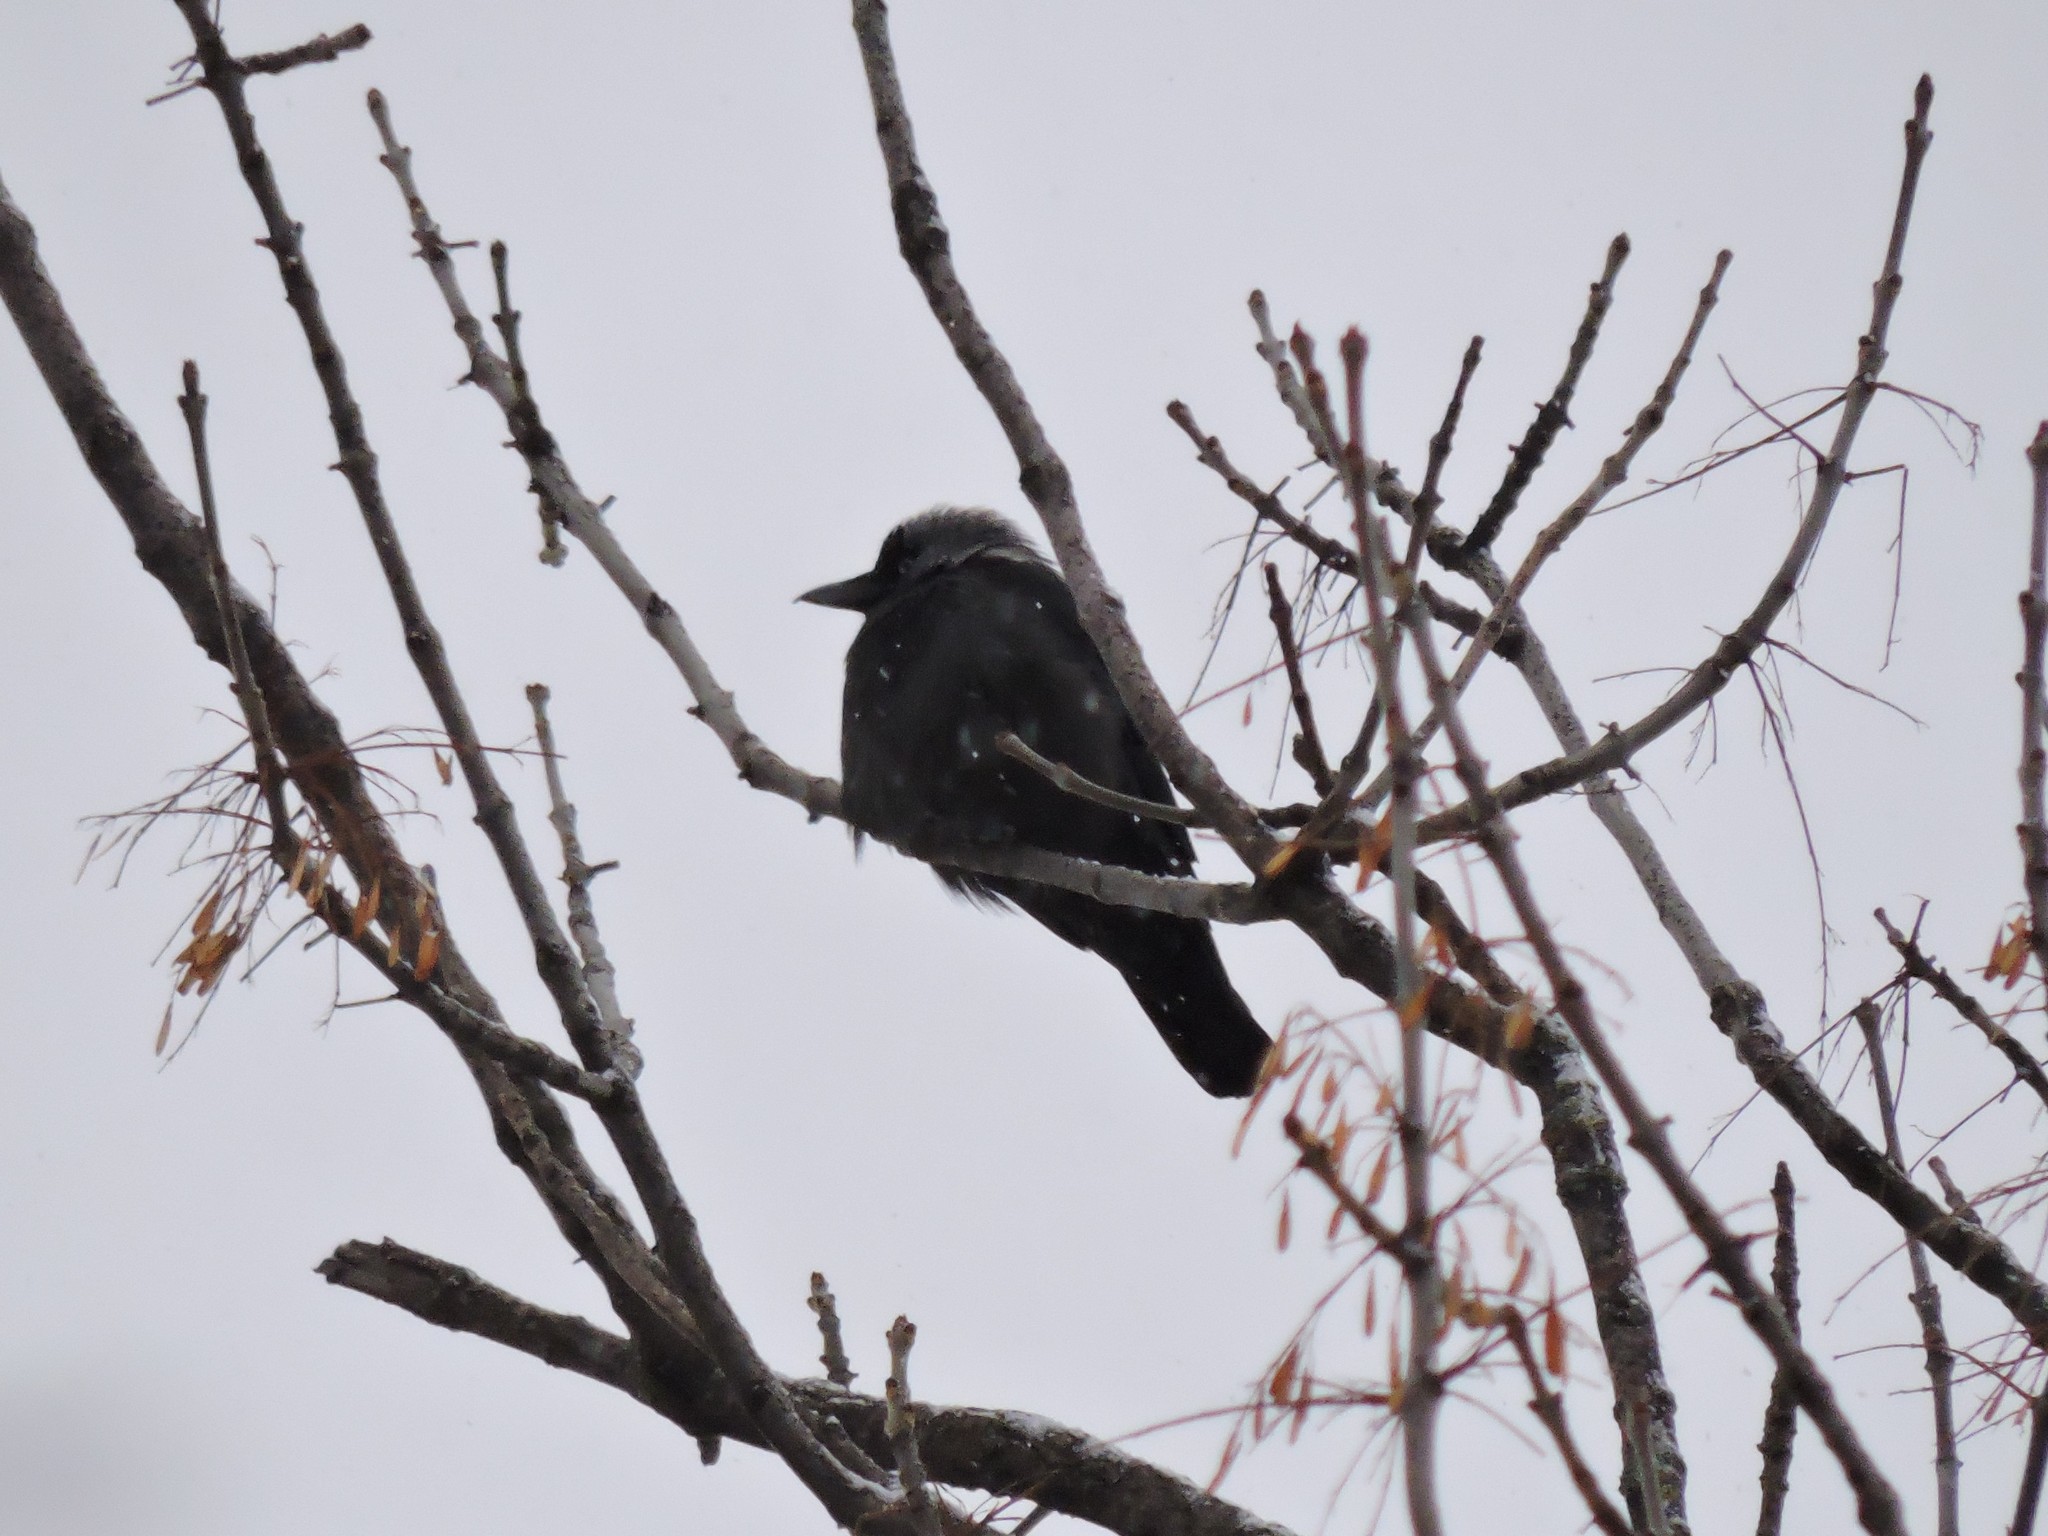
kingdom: Animalia
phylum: Chordata
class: Aves
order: Passeriformes
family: Corvidae
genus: Coloeus
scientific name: Coloeus monedula
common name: Western jackdaw
